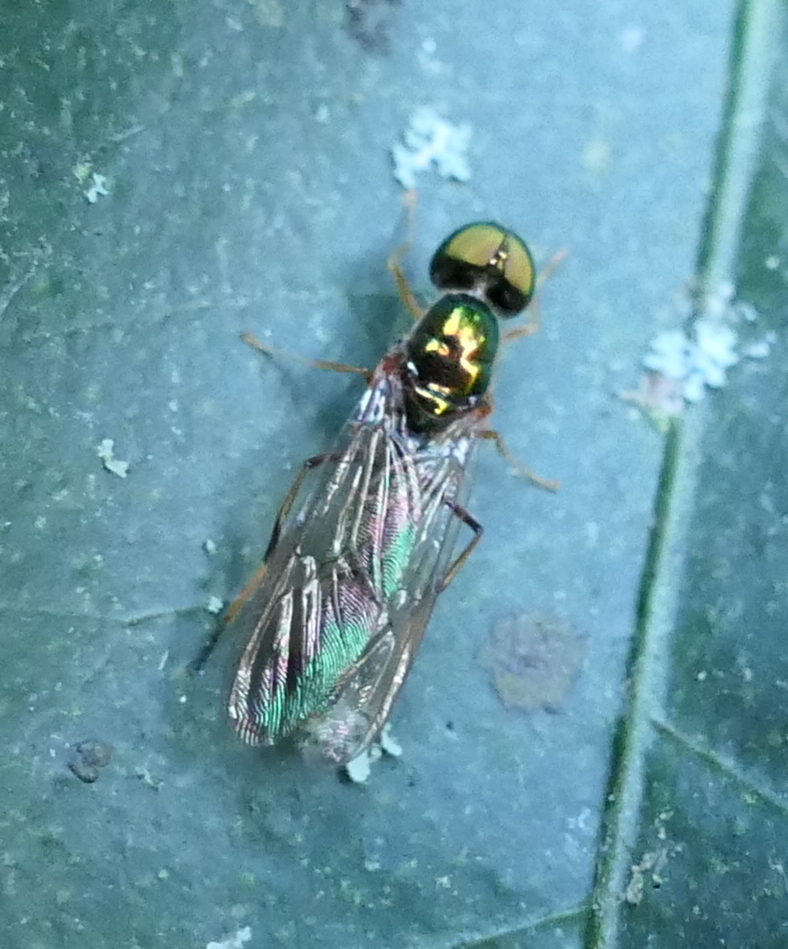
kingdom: Animalia
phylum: Arthropoda
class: Insecta
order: Diptera
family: Stratiomyidae
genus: Sargus
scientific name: Sargus fasciatus
